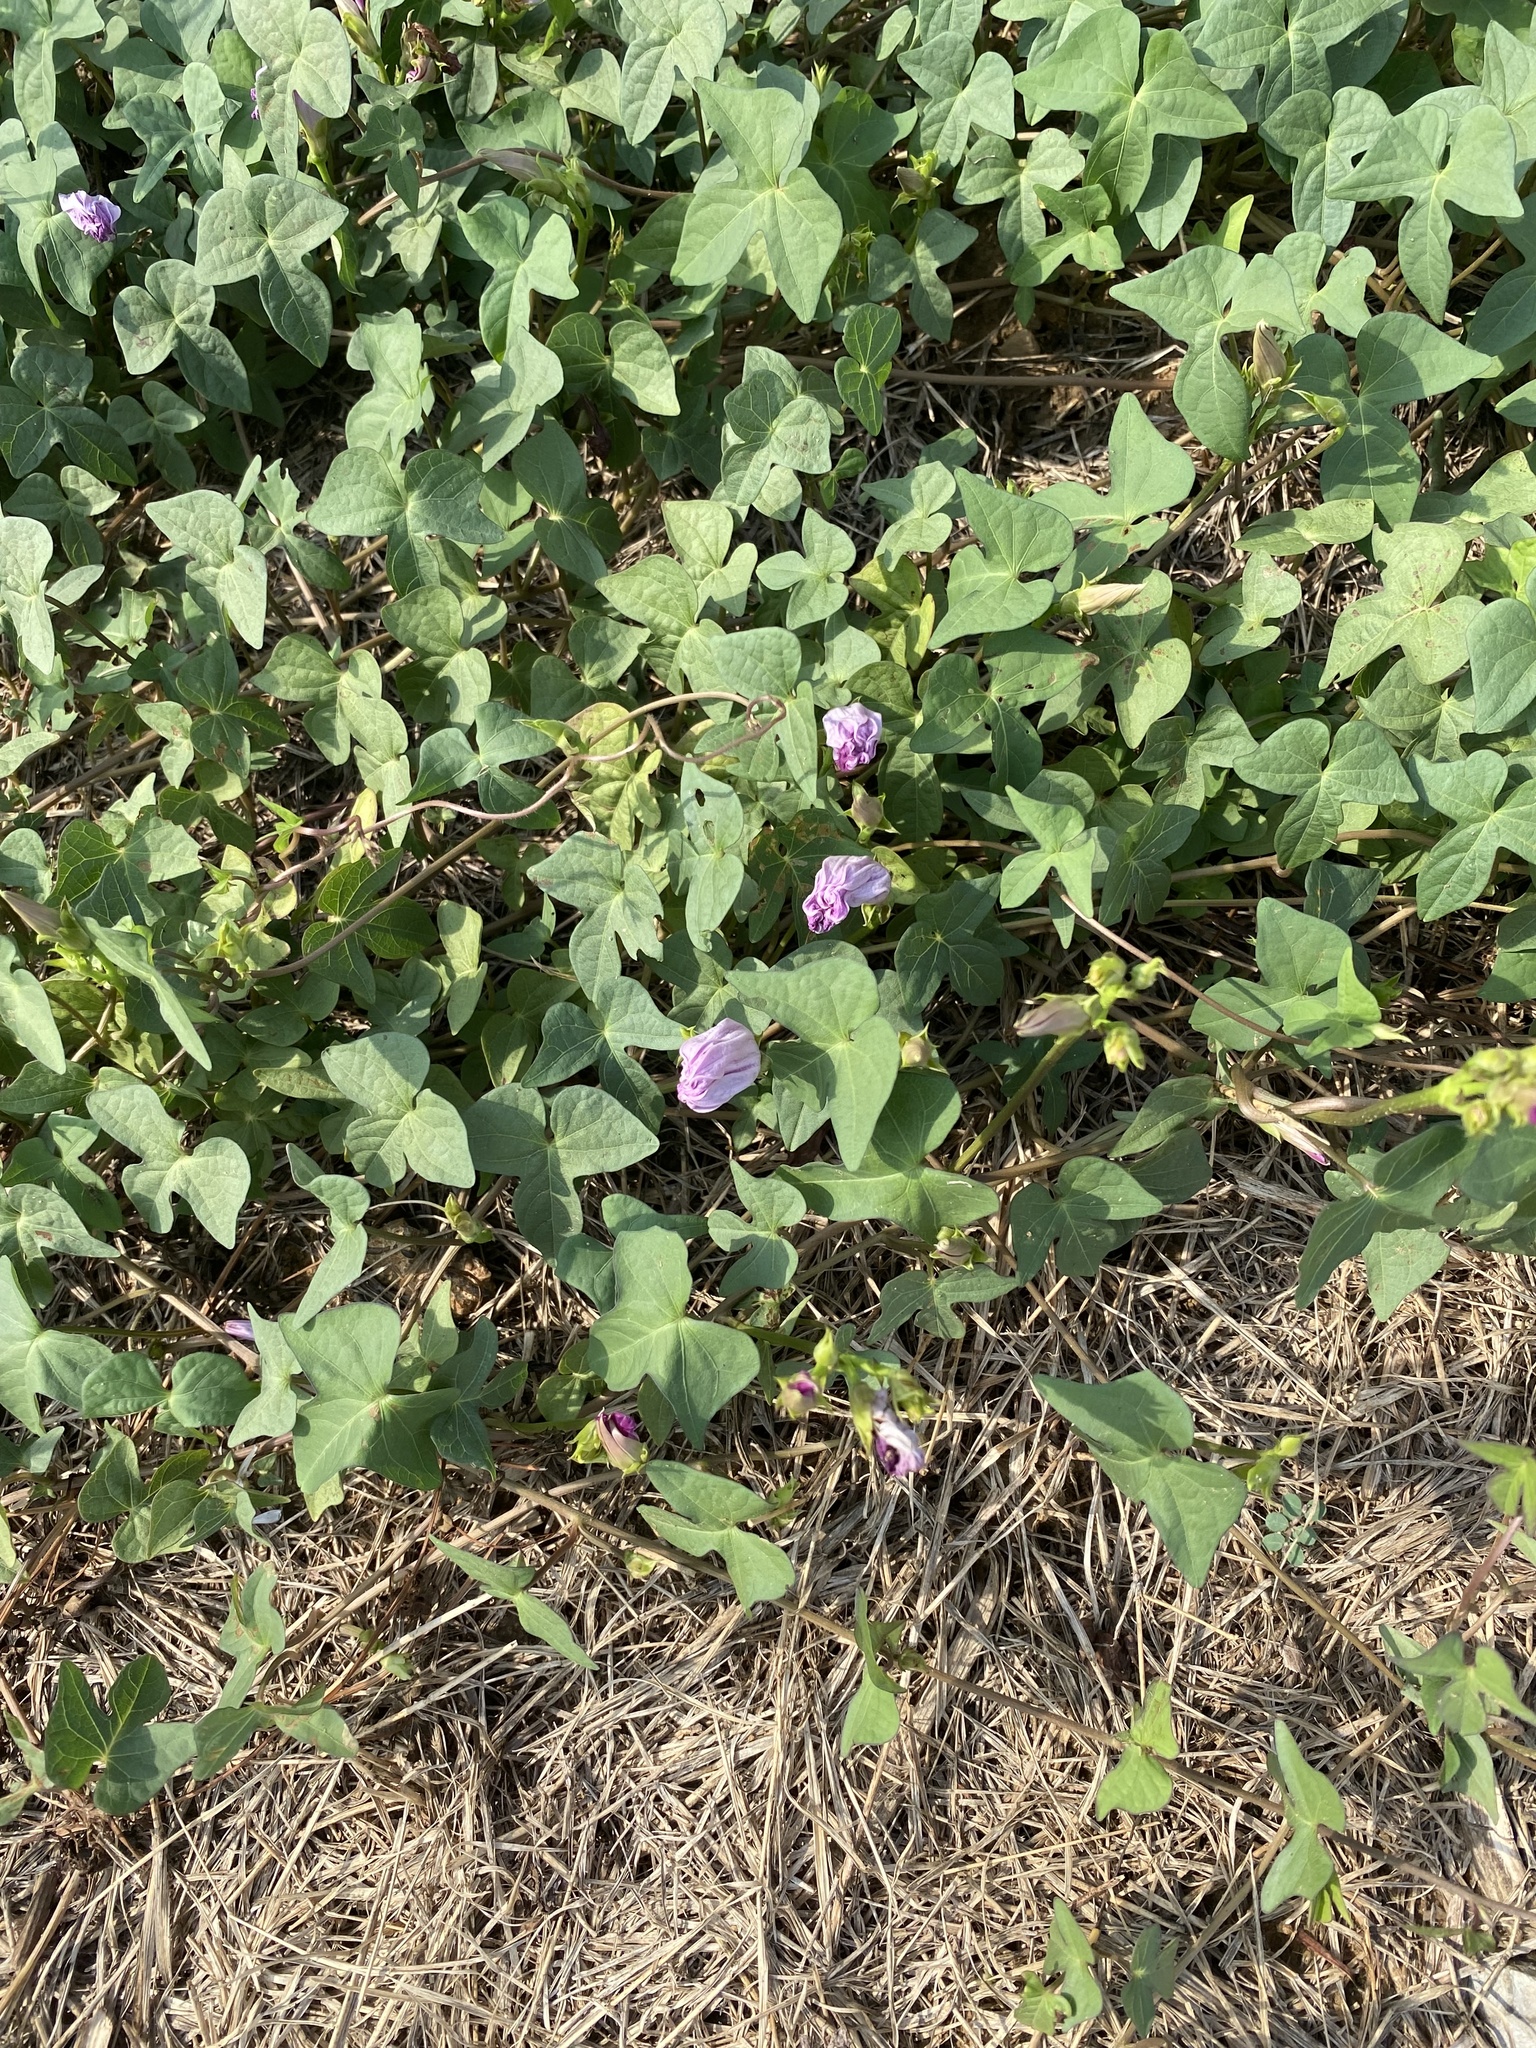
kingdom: Plantae
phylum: Tracheophyta
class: Magnoliopsida
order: Solanales
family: Convolvulaceae
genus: Ipomoea
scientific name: Ipomoea cordatotriloba
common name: Cotton morning glory
